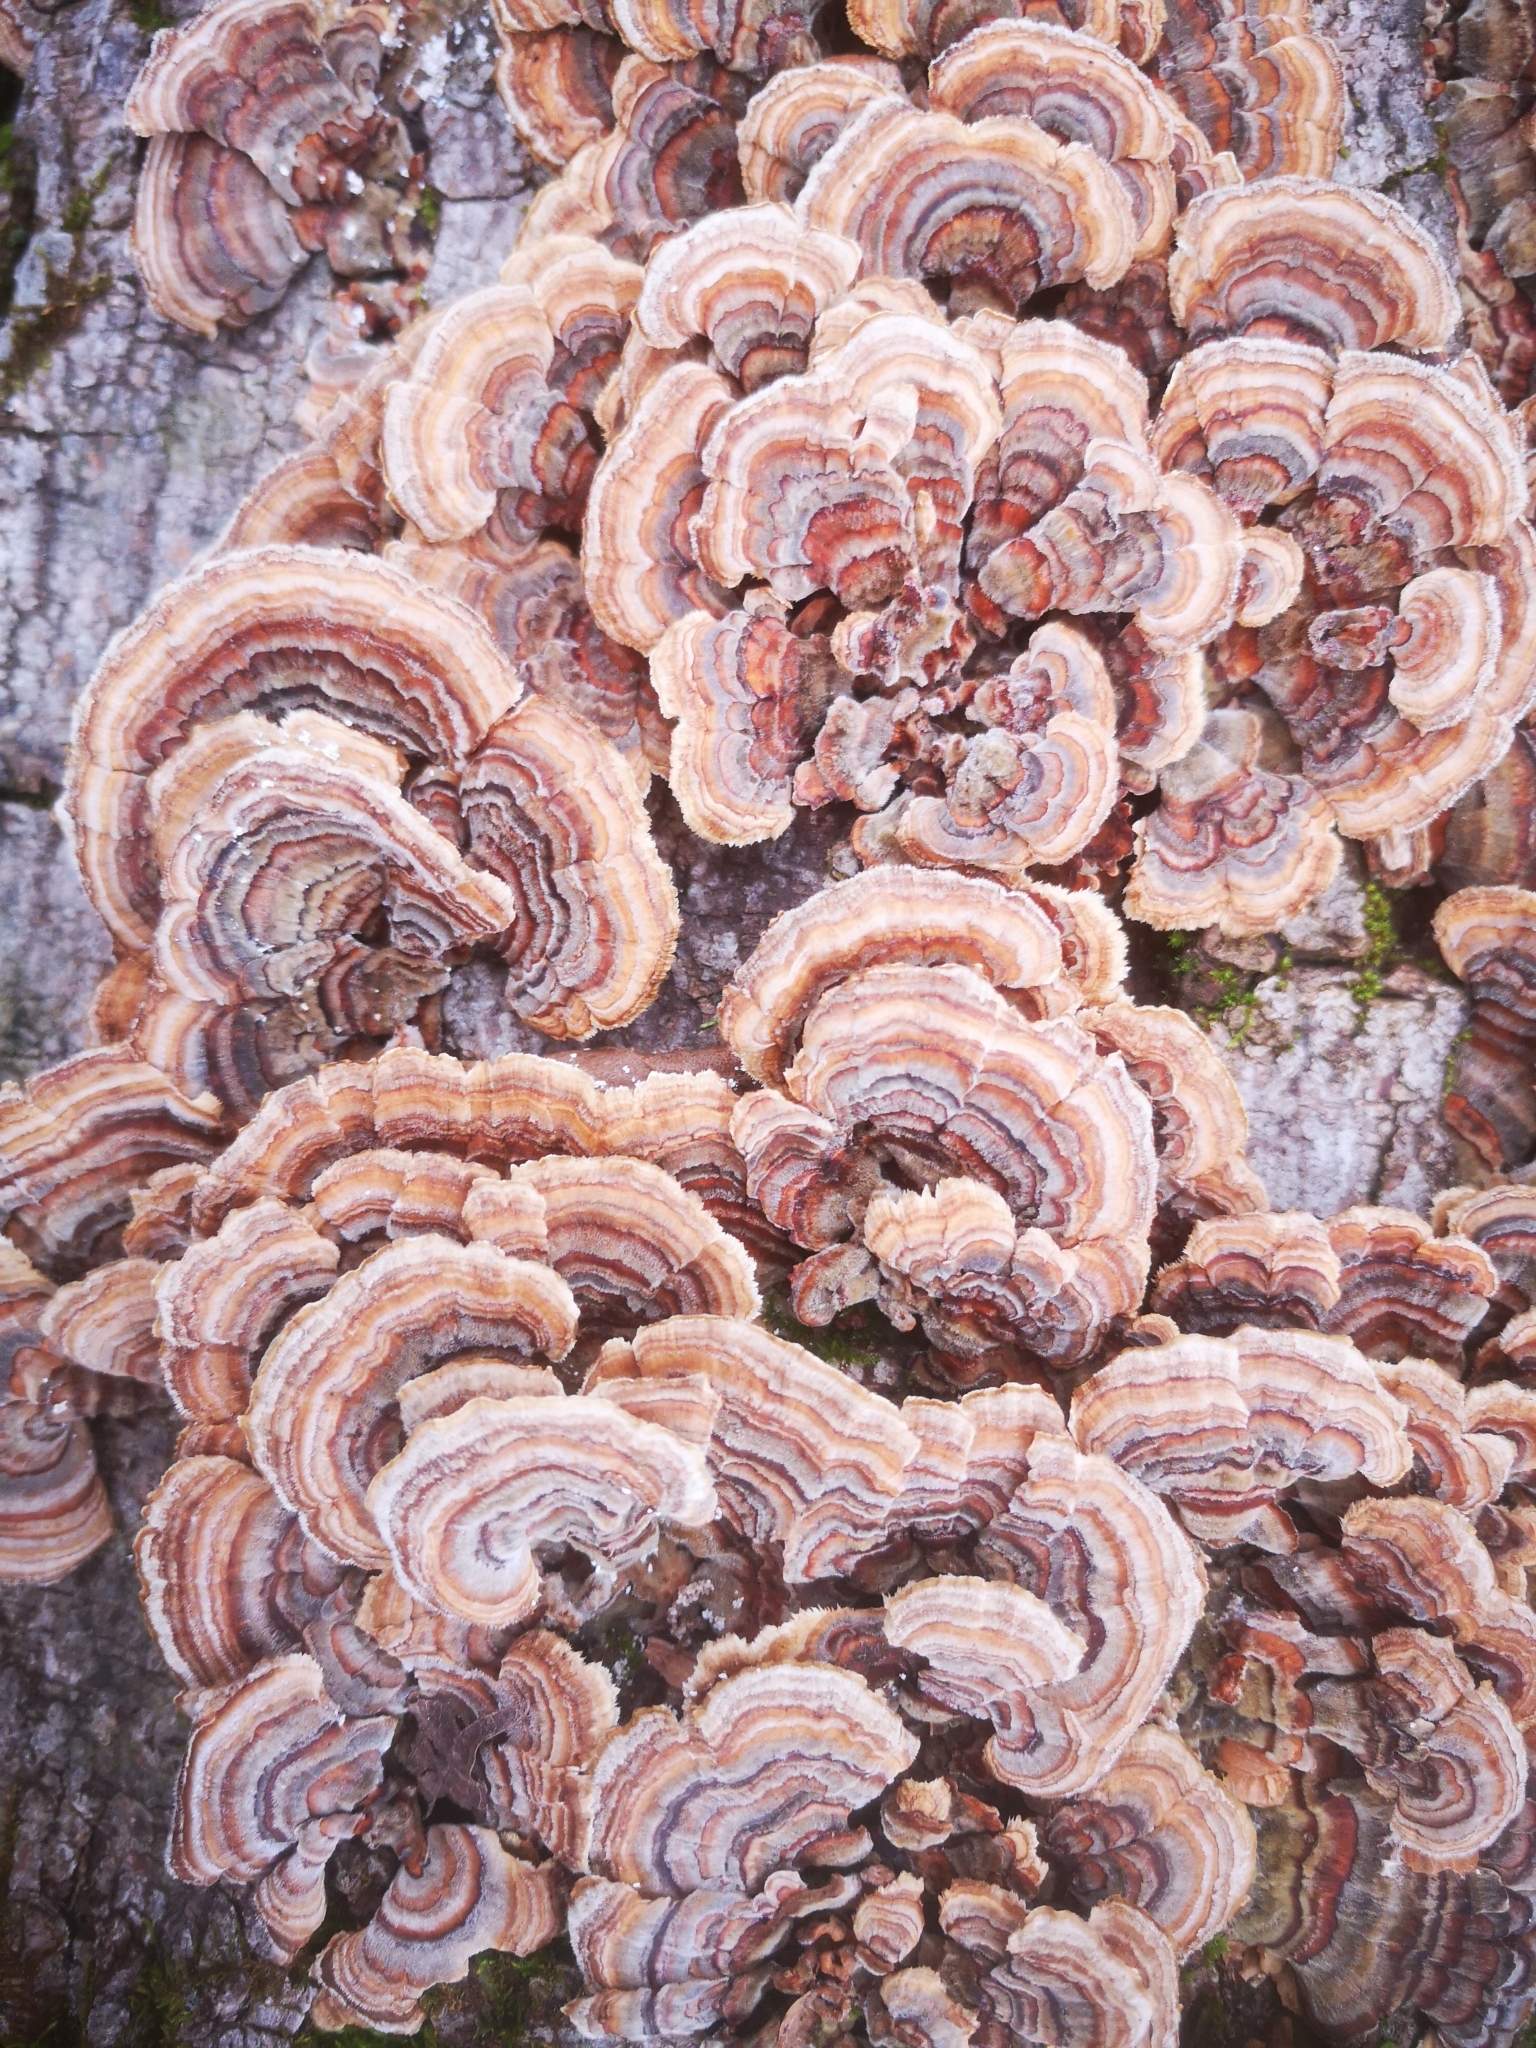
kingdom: Fungi
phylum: Basidiomycota
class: Agaricomycetes
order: Polyporales
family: Polyporaceae
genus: Trametes
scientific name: Trametes versicolor
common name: Turkeytail
